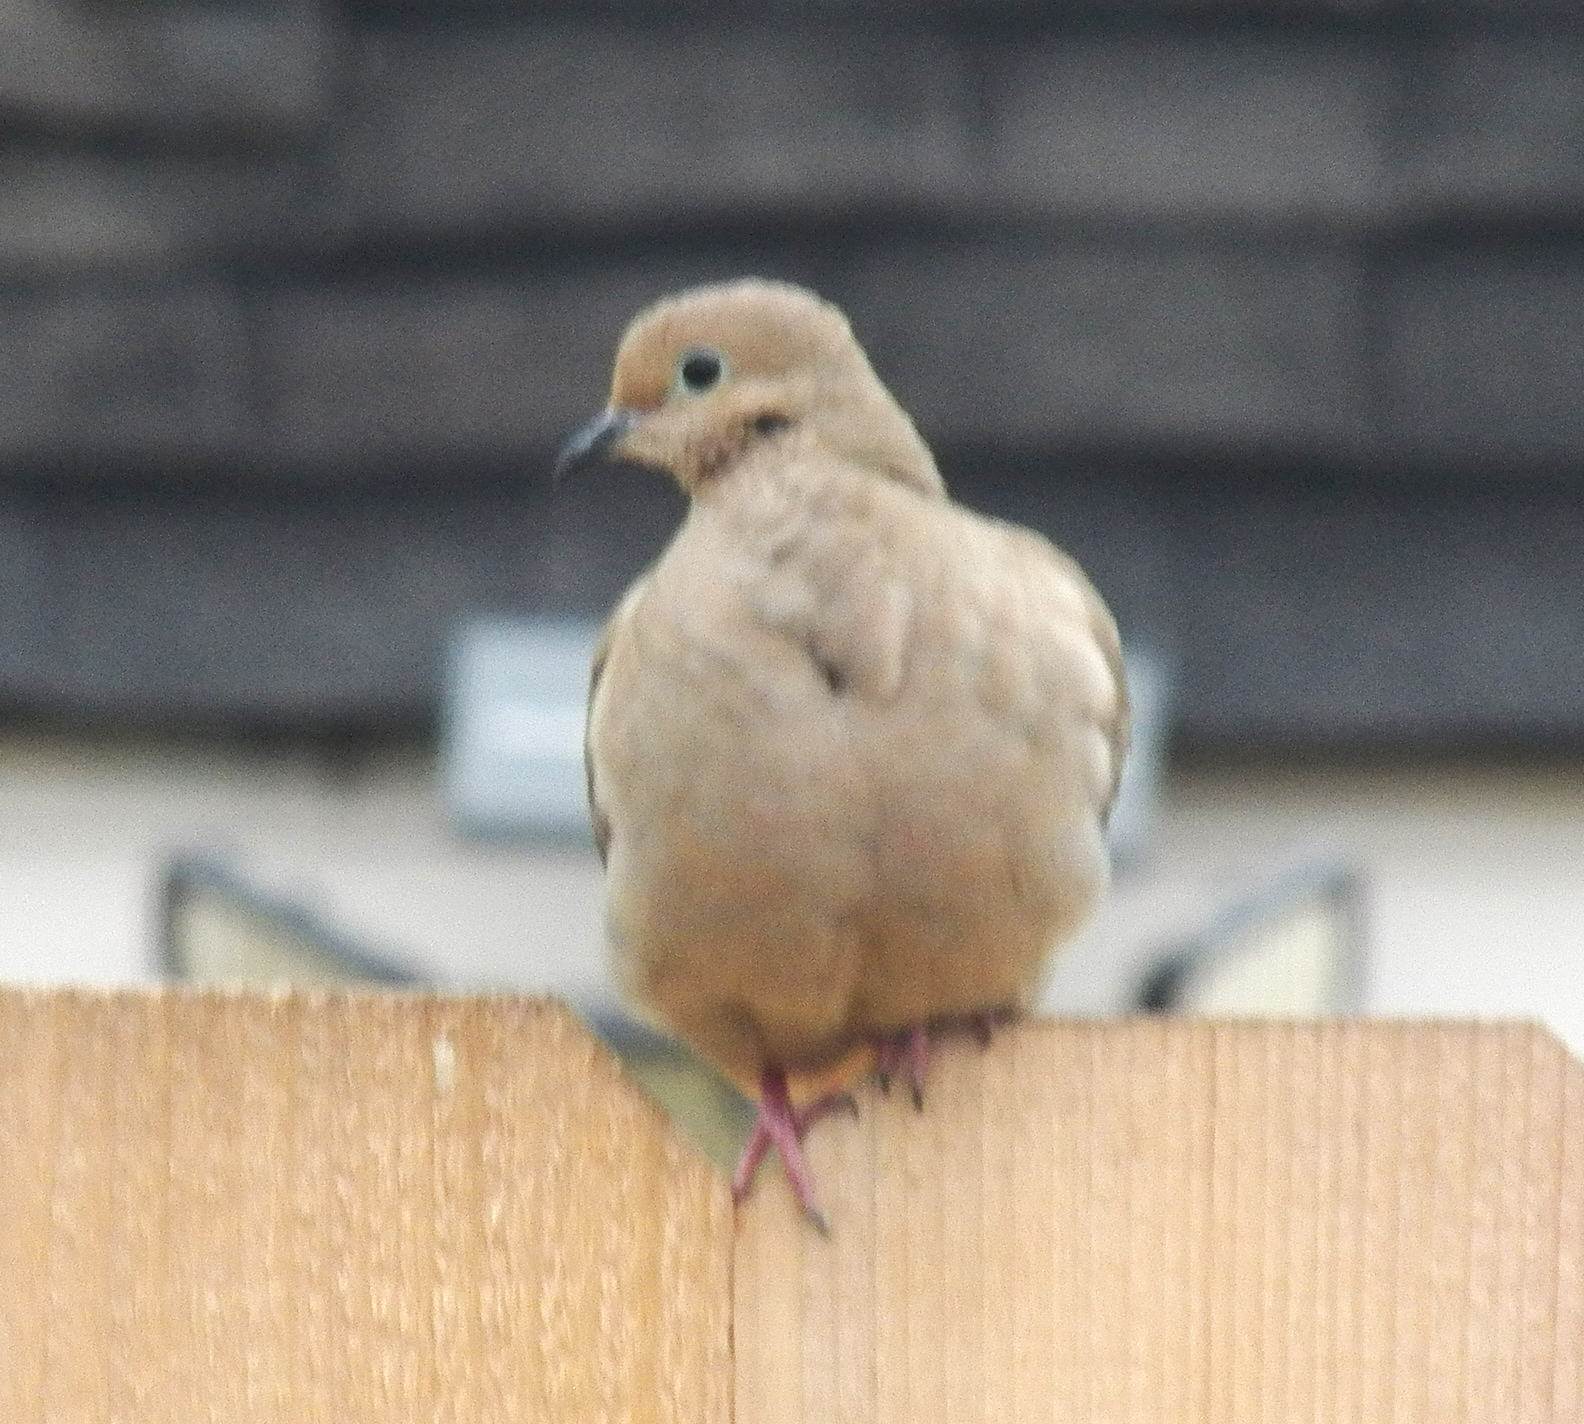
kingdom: Animalia
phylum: Chordata
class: Aves
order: Columbiformes
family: Columbidae
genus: Zenaida
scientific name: Zenaida macroura
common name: Mourning dove
